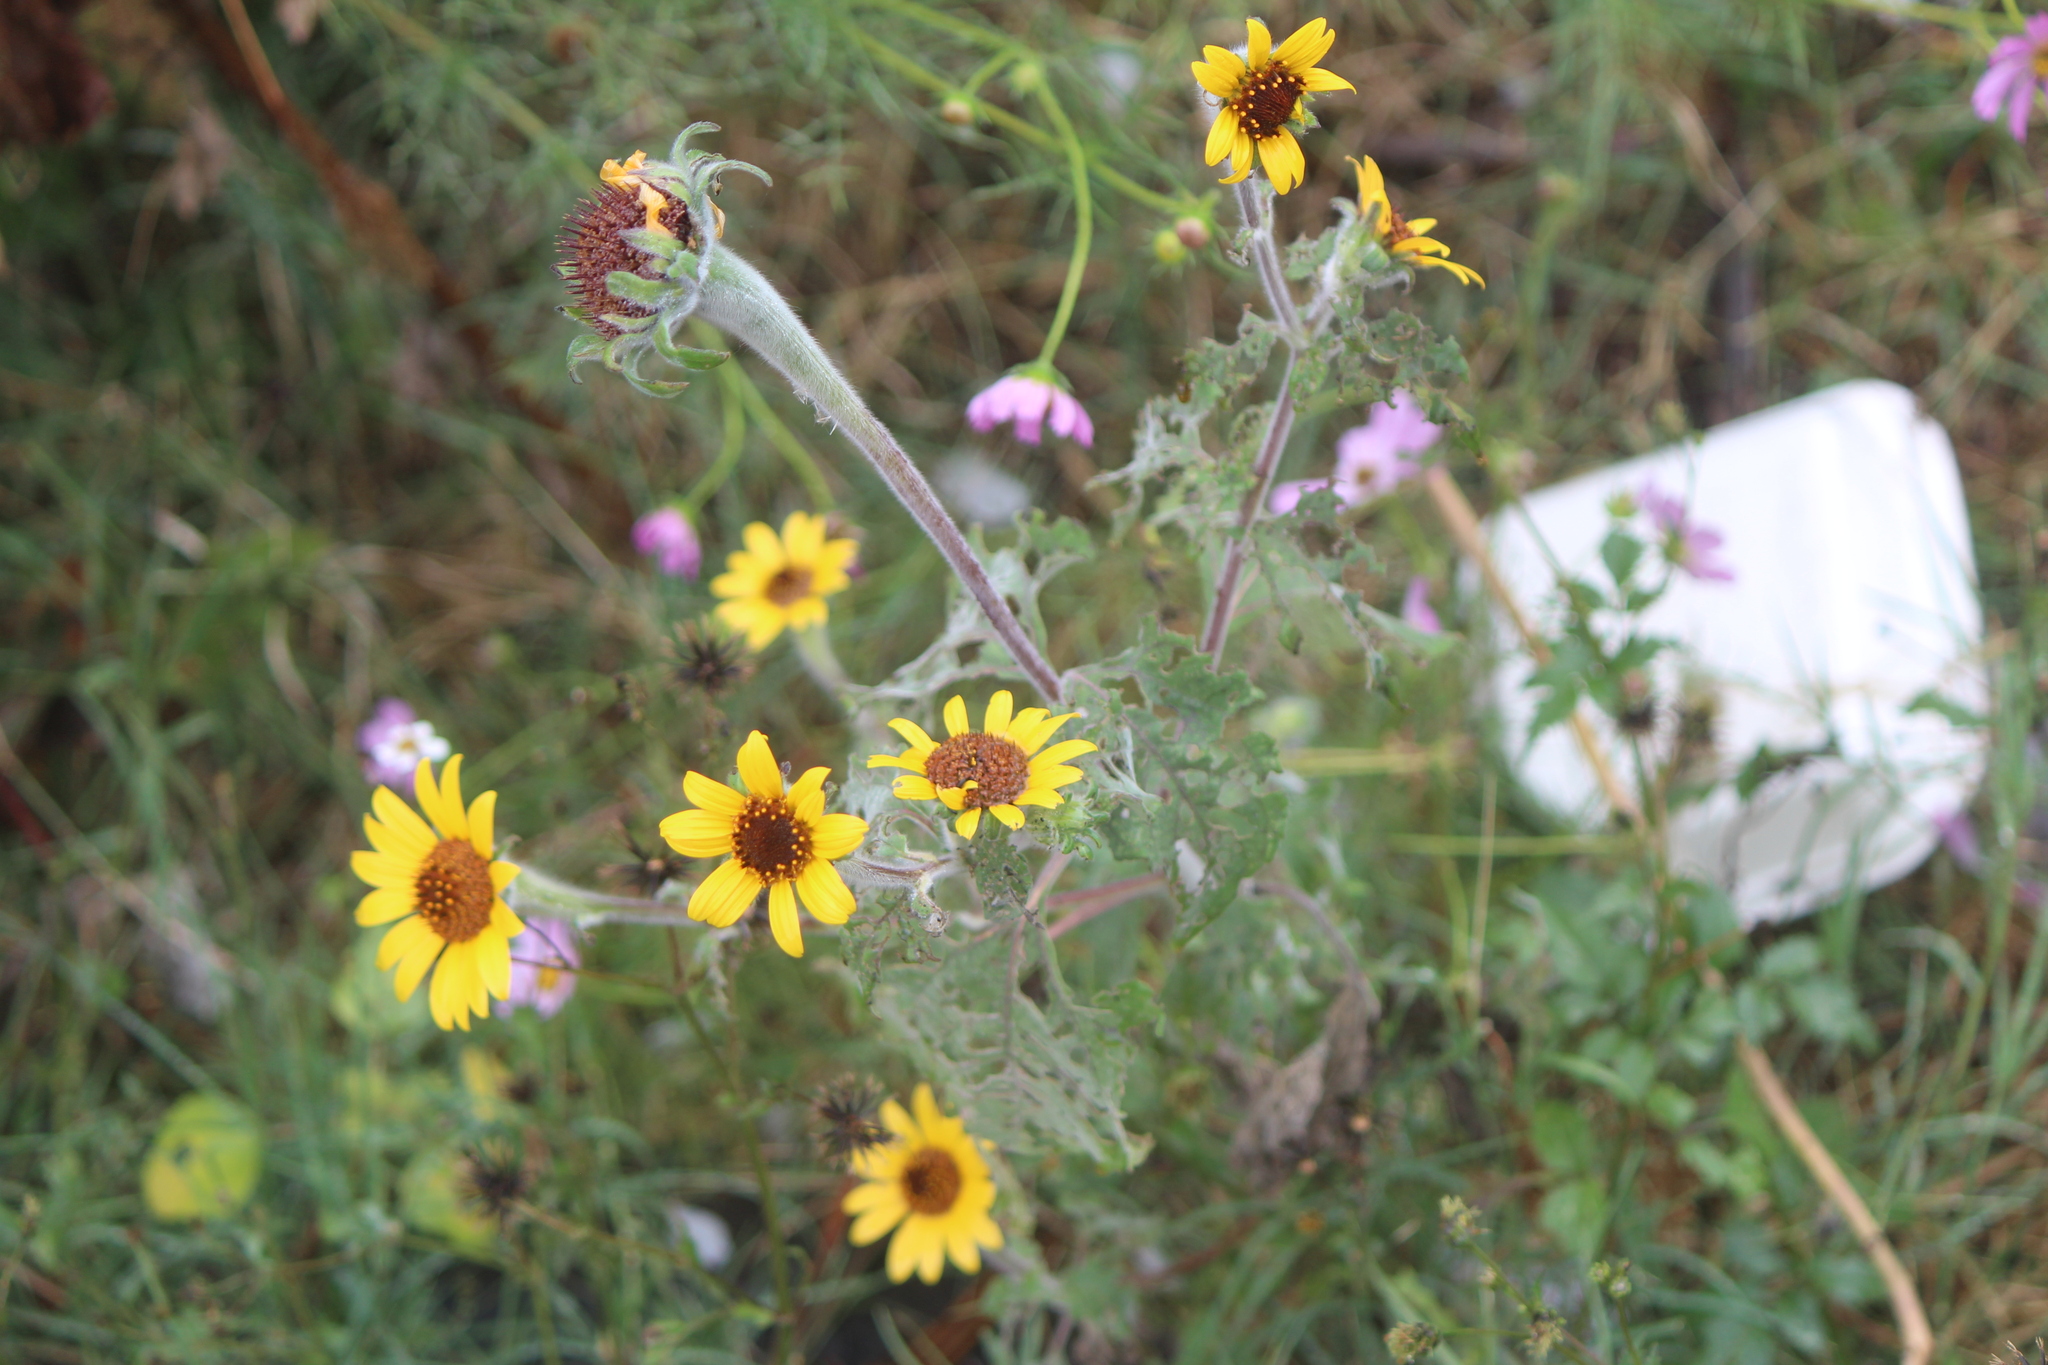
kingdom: Plantae
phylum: Tracheophyta
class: Magnoliopsida
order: Asterales
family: Asteraceae
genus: Tithonia
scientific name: Tithonia tubaeformis
